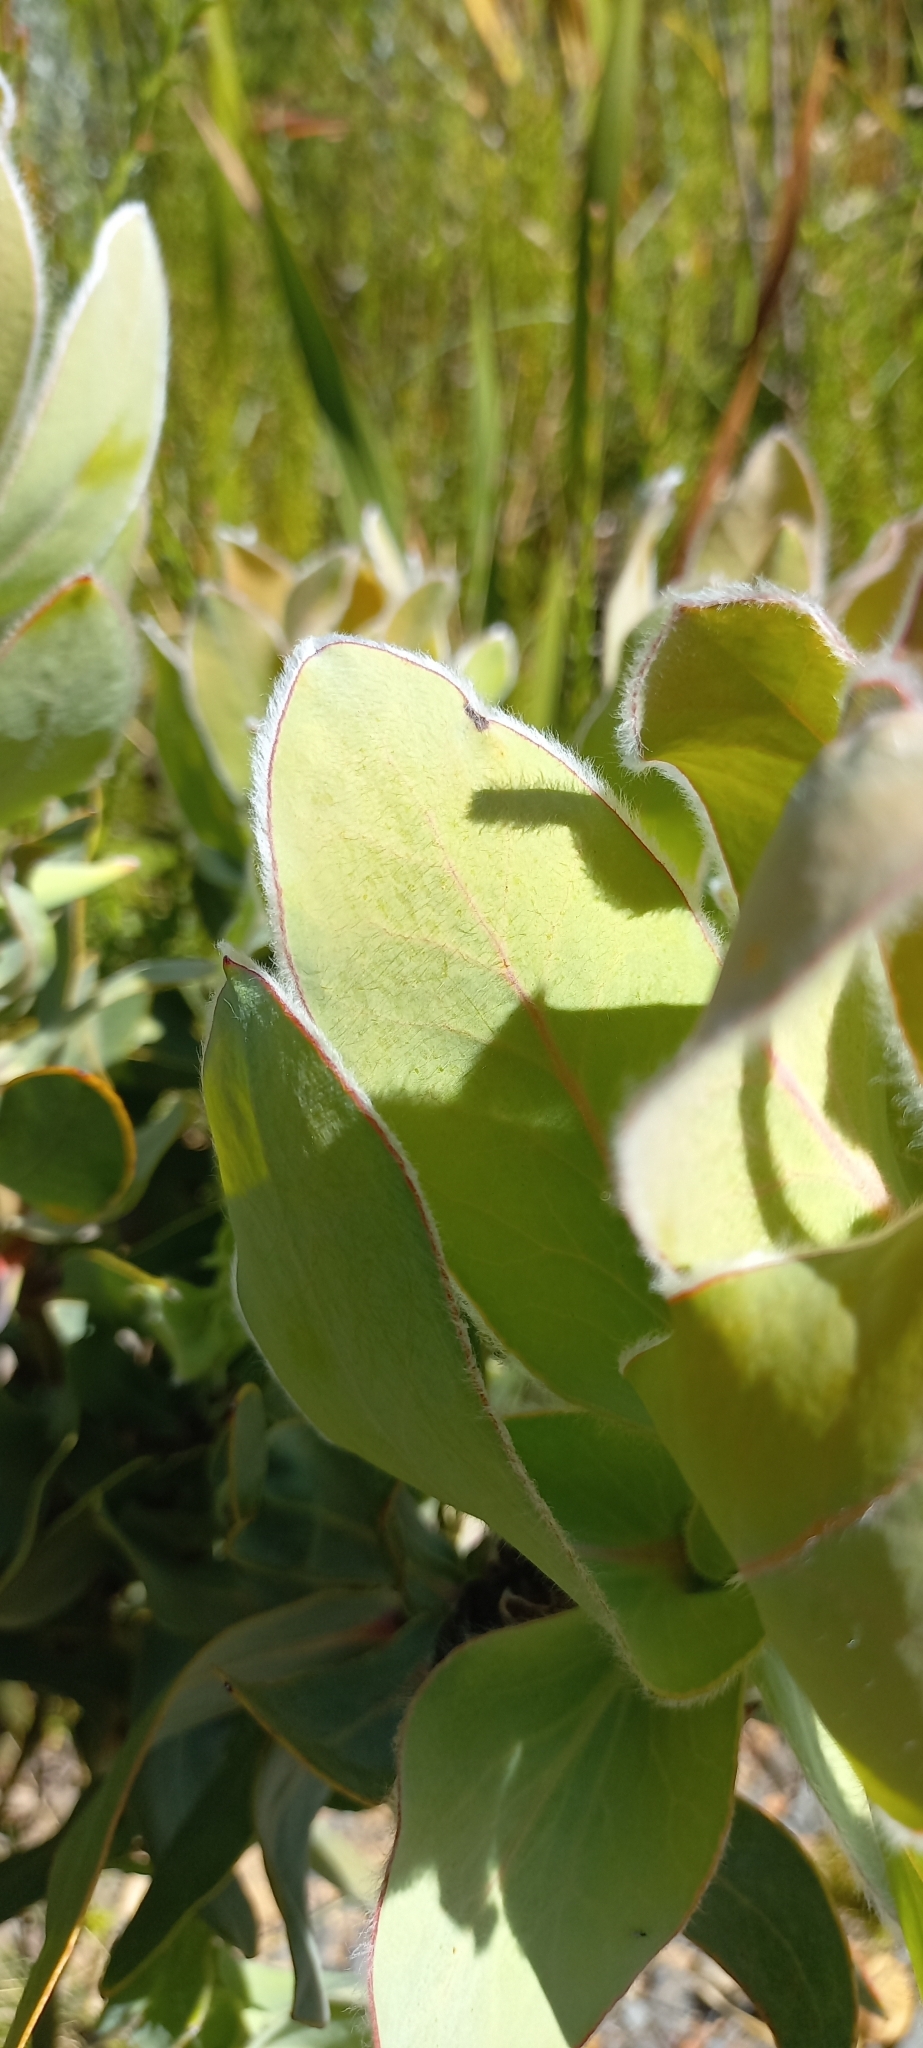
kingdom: Plantae
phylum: Tracheophyta
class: Magnoliopsida
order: Proteales
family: Proteaceae
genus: Protea
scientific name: Protea eximia
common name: Broad-leaved sugarbush
